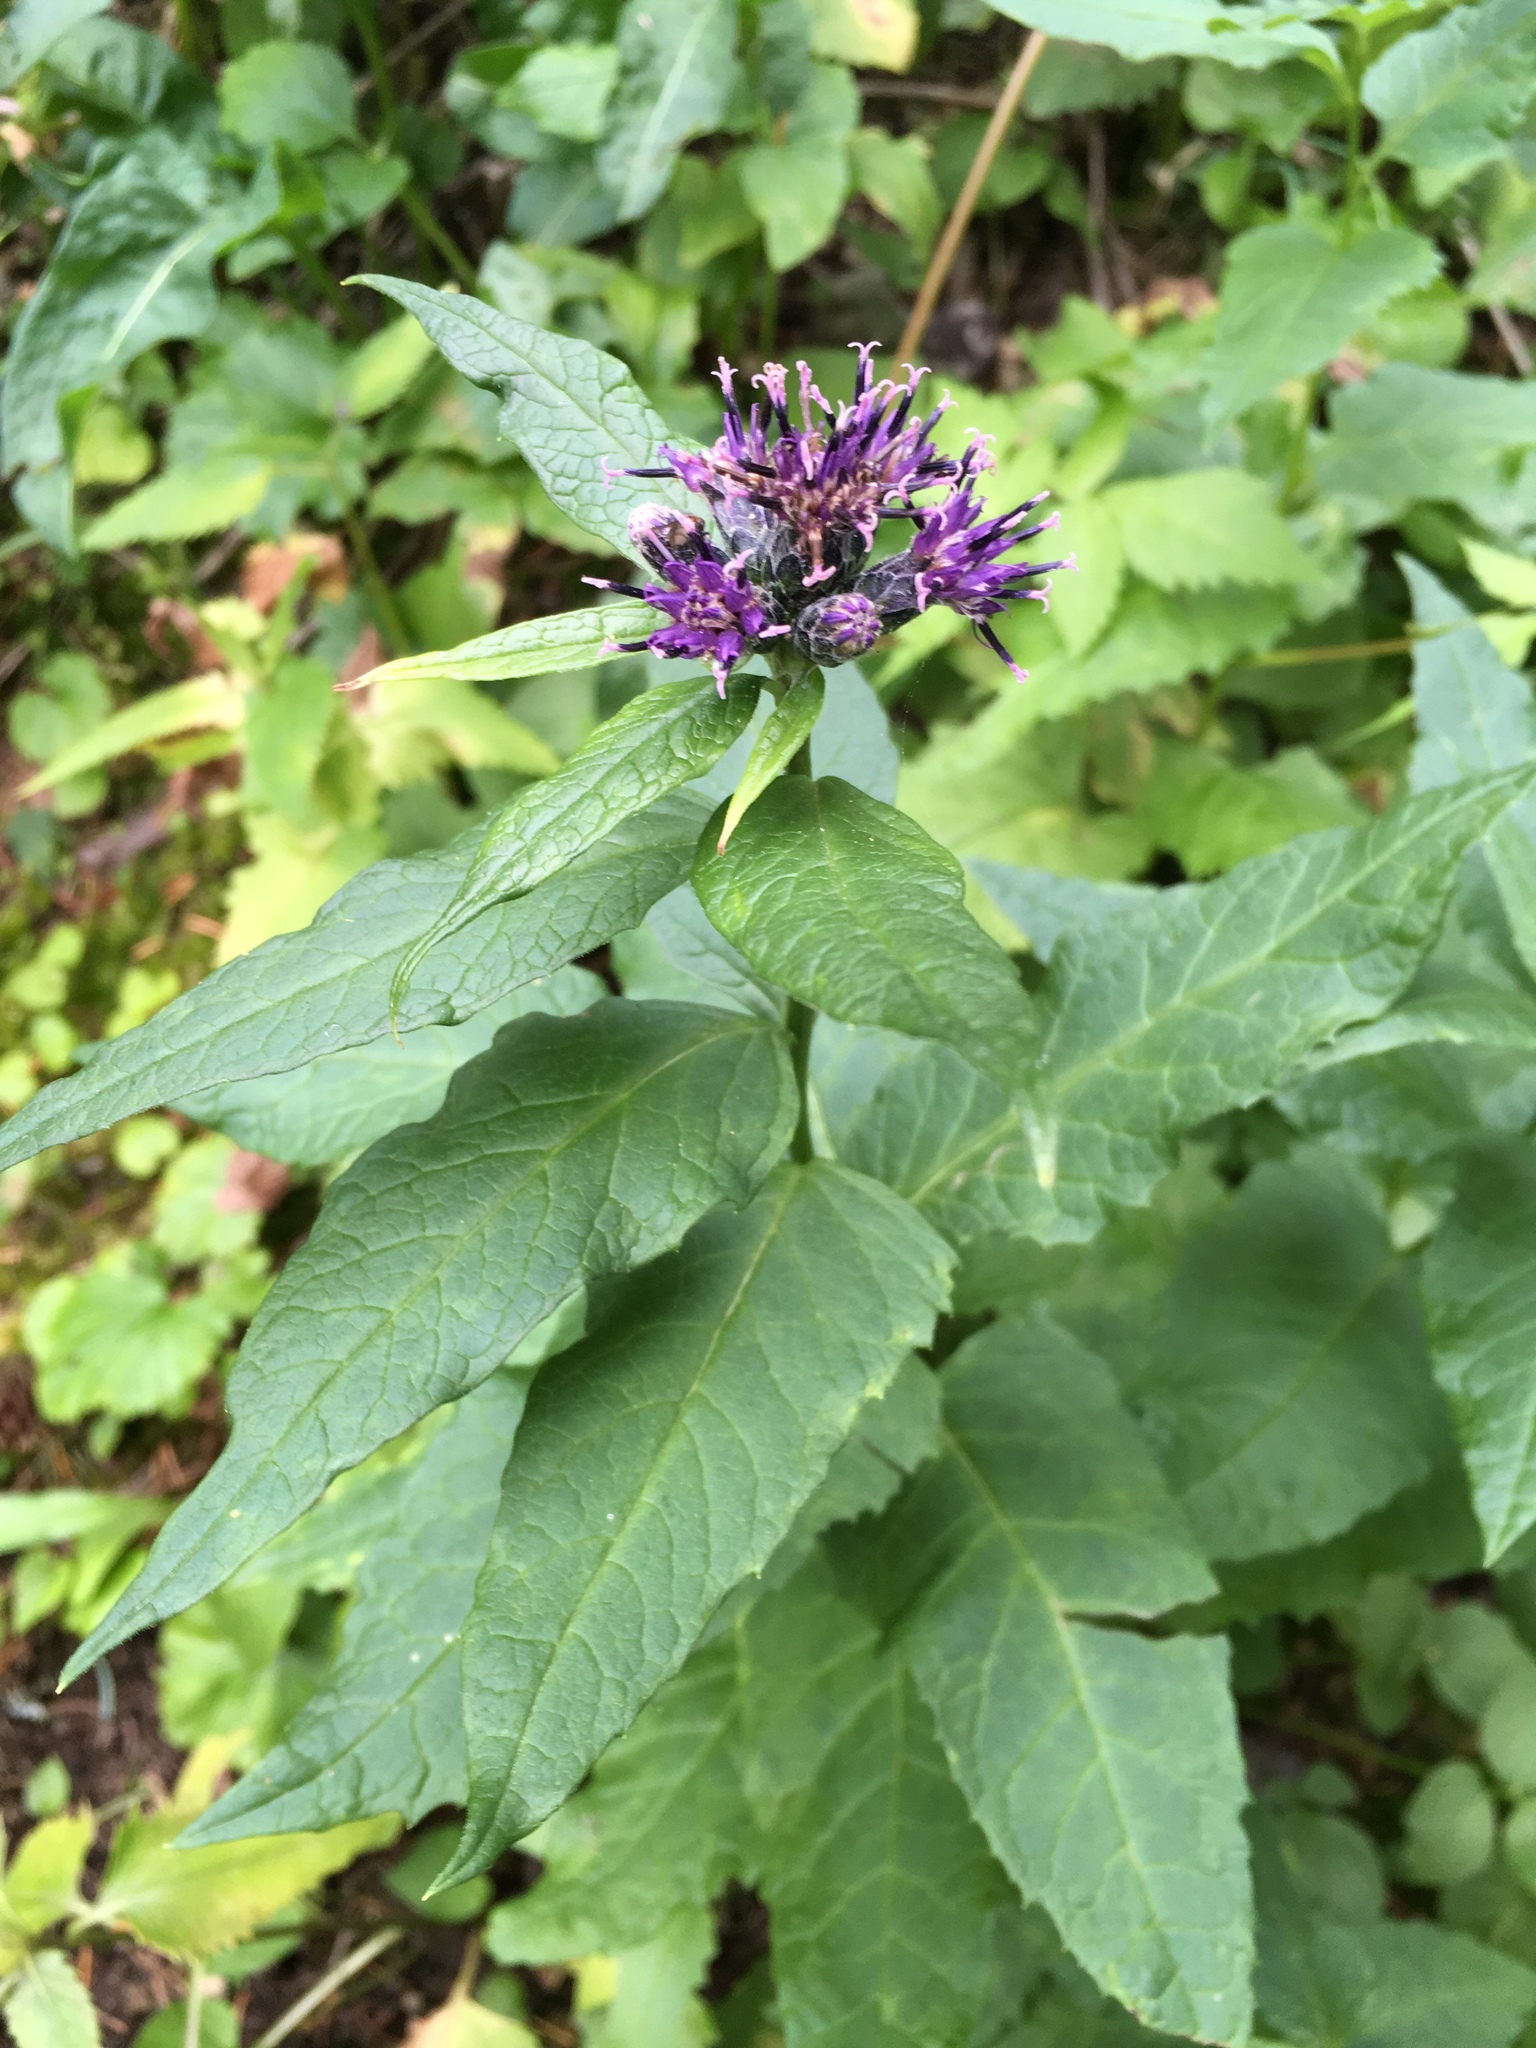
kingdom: Plantae
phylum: Tracheophyta
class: Magnoliopsida
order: Asterales
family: Asteraceae
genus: Saussurea
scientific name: Saussurea americana
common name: American saw-wort
